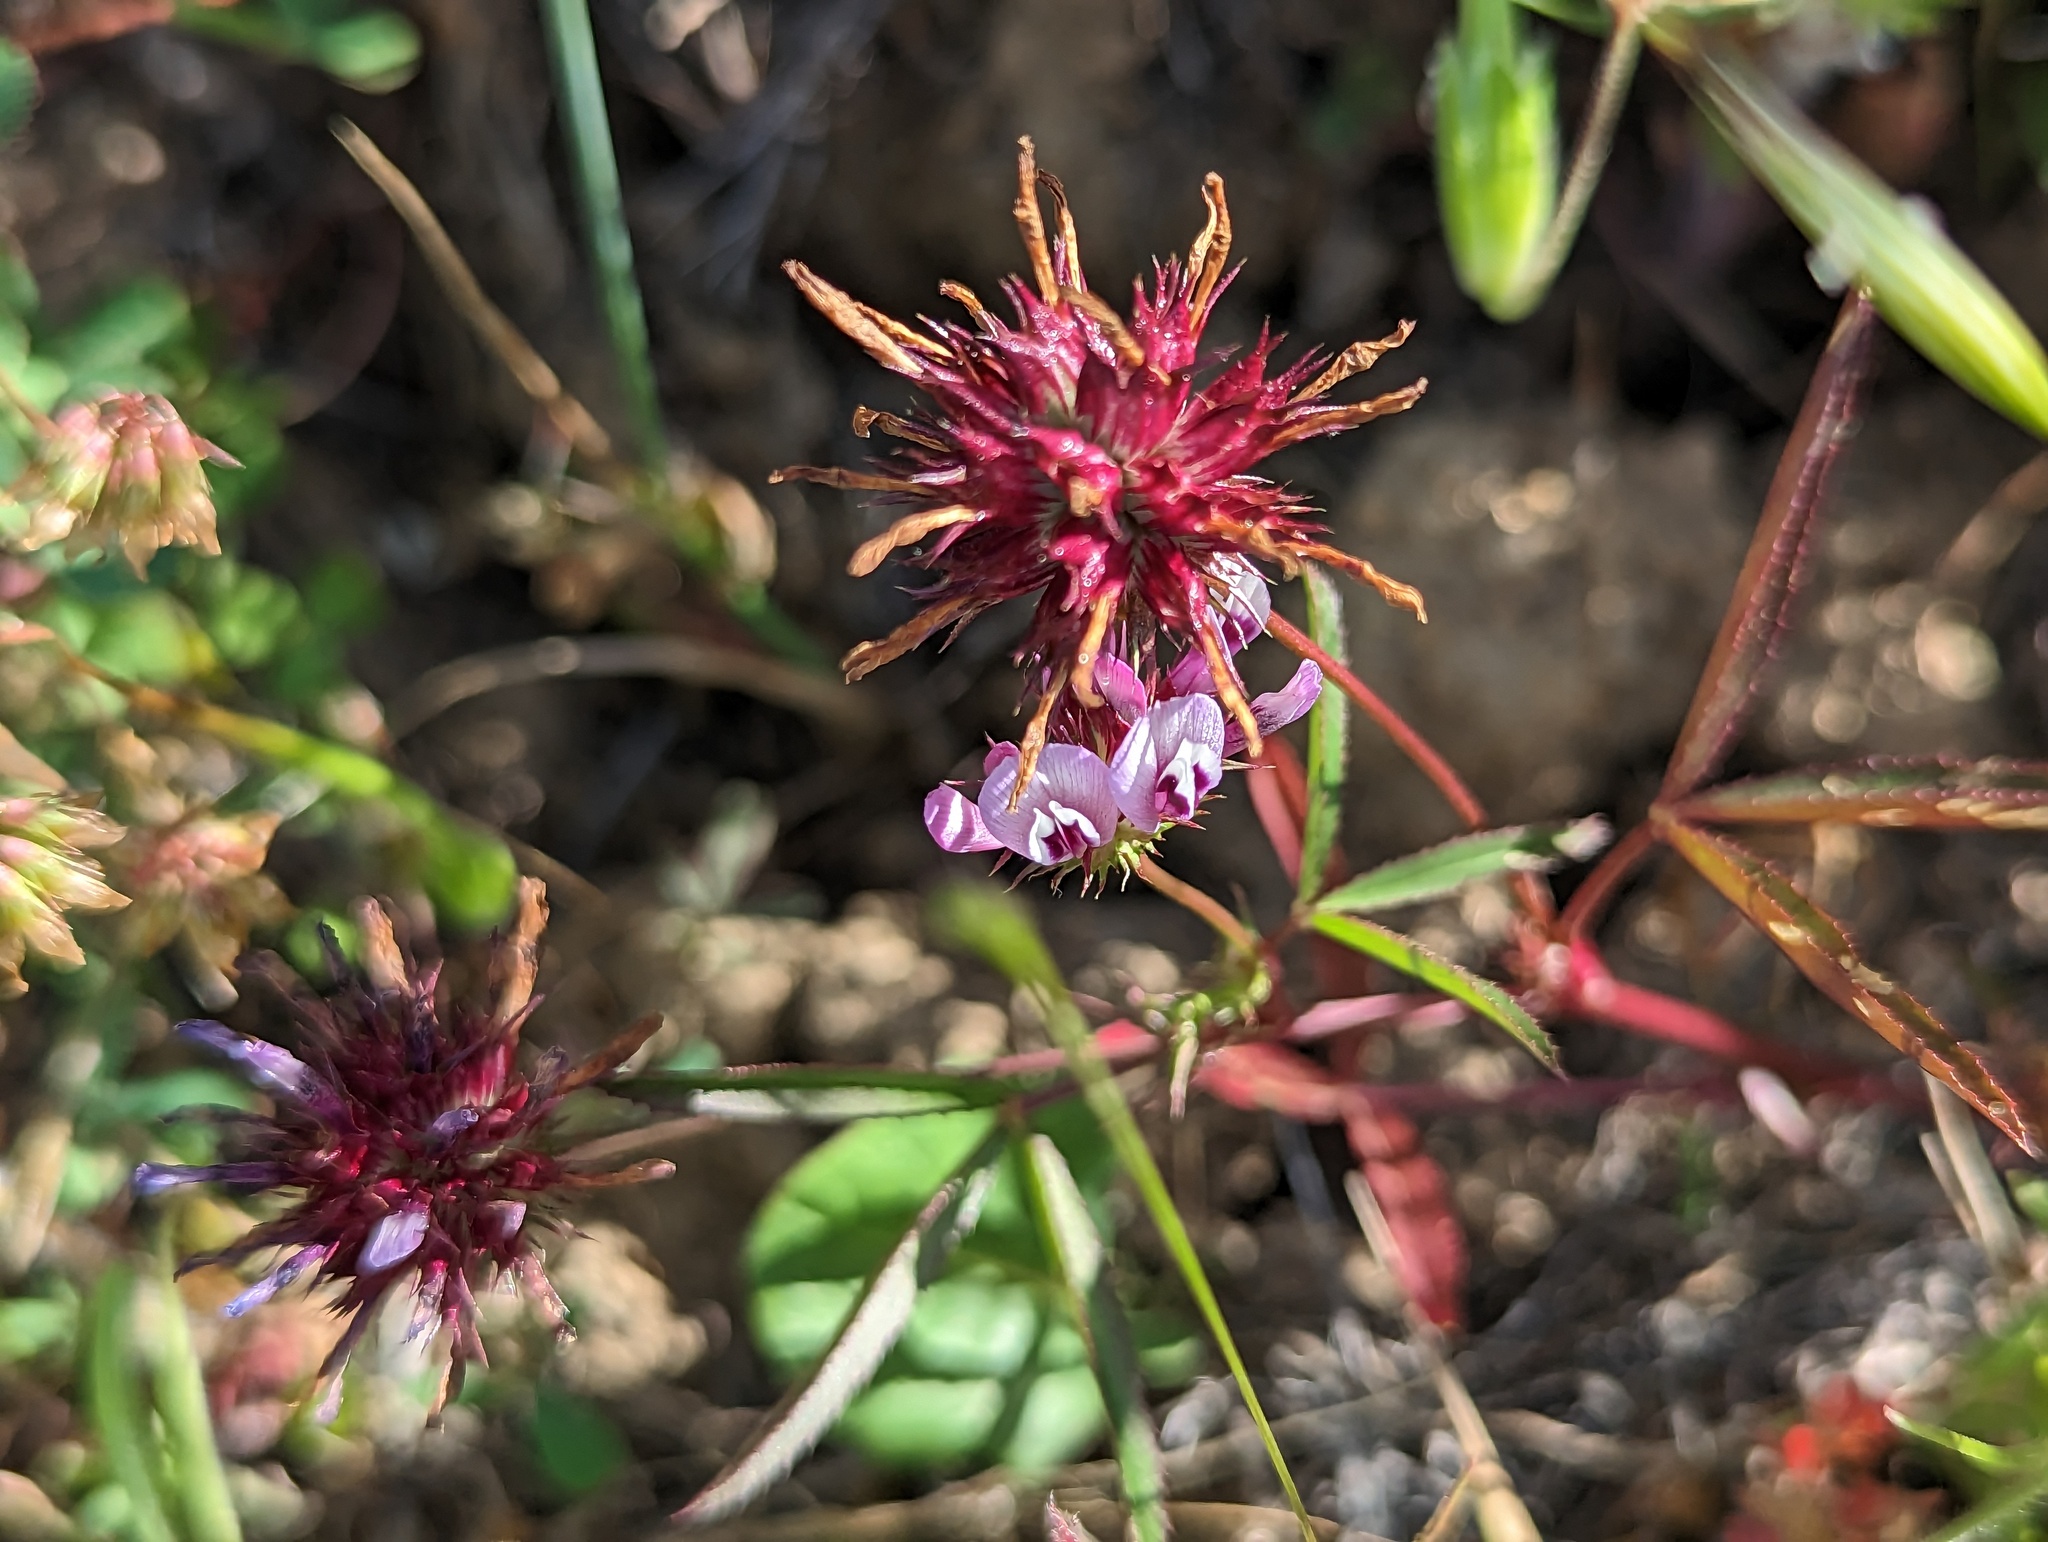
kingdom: Plantae
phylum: Tracheophyta
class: Magnoliopsida
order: Fabales
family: Fabaceae
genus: Trifolium
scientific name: Trifolium willdenovii
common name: Tomcat clover
